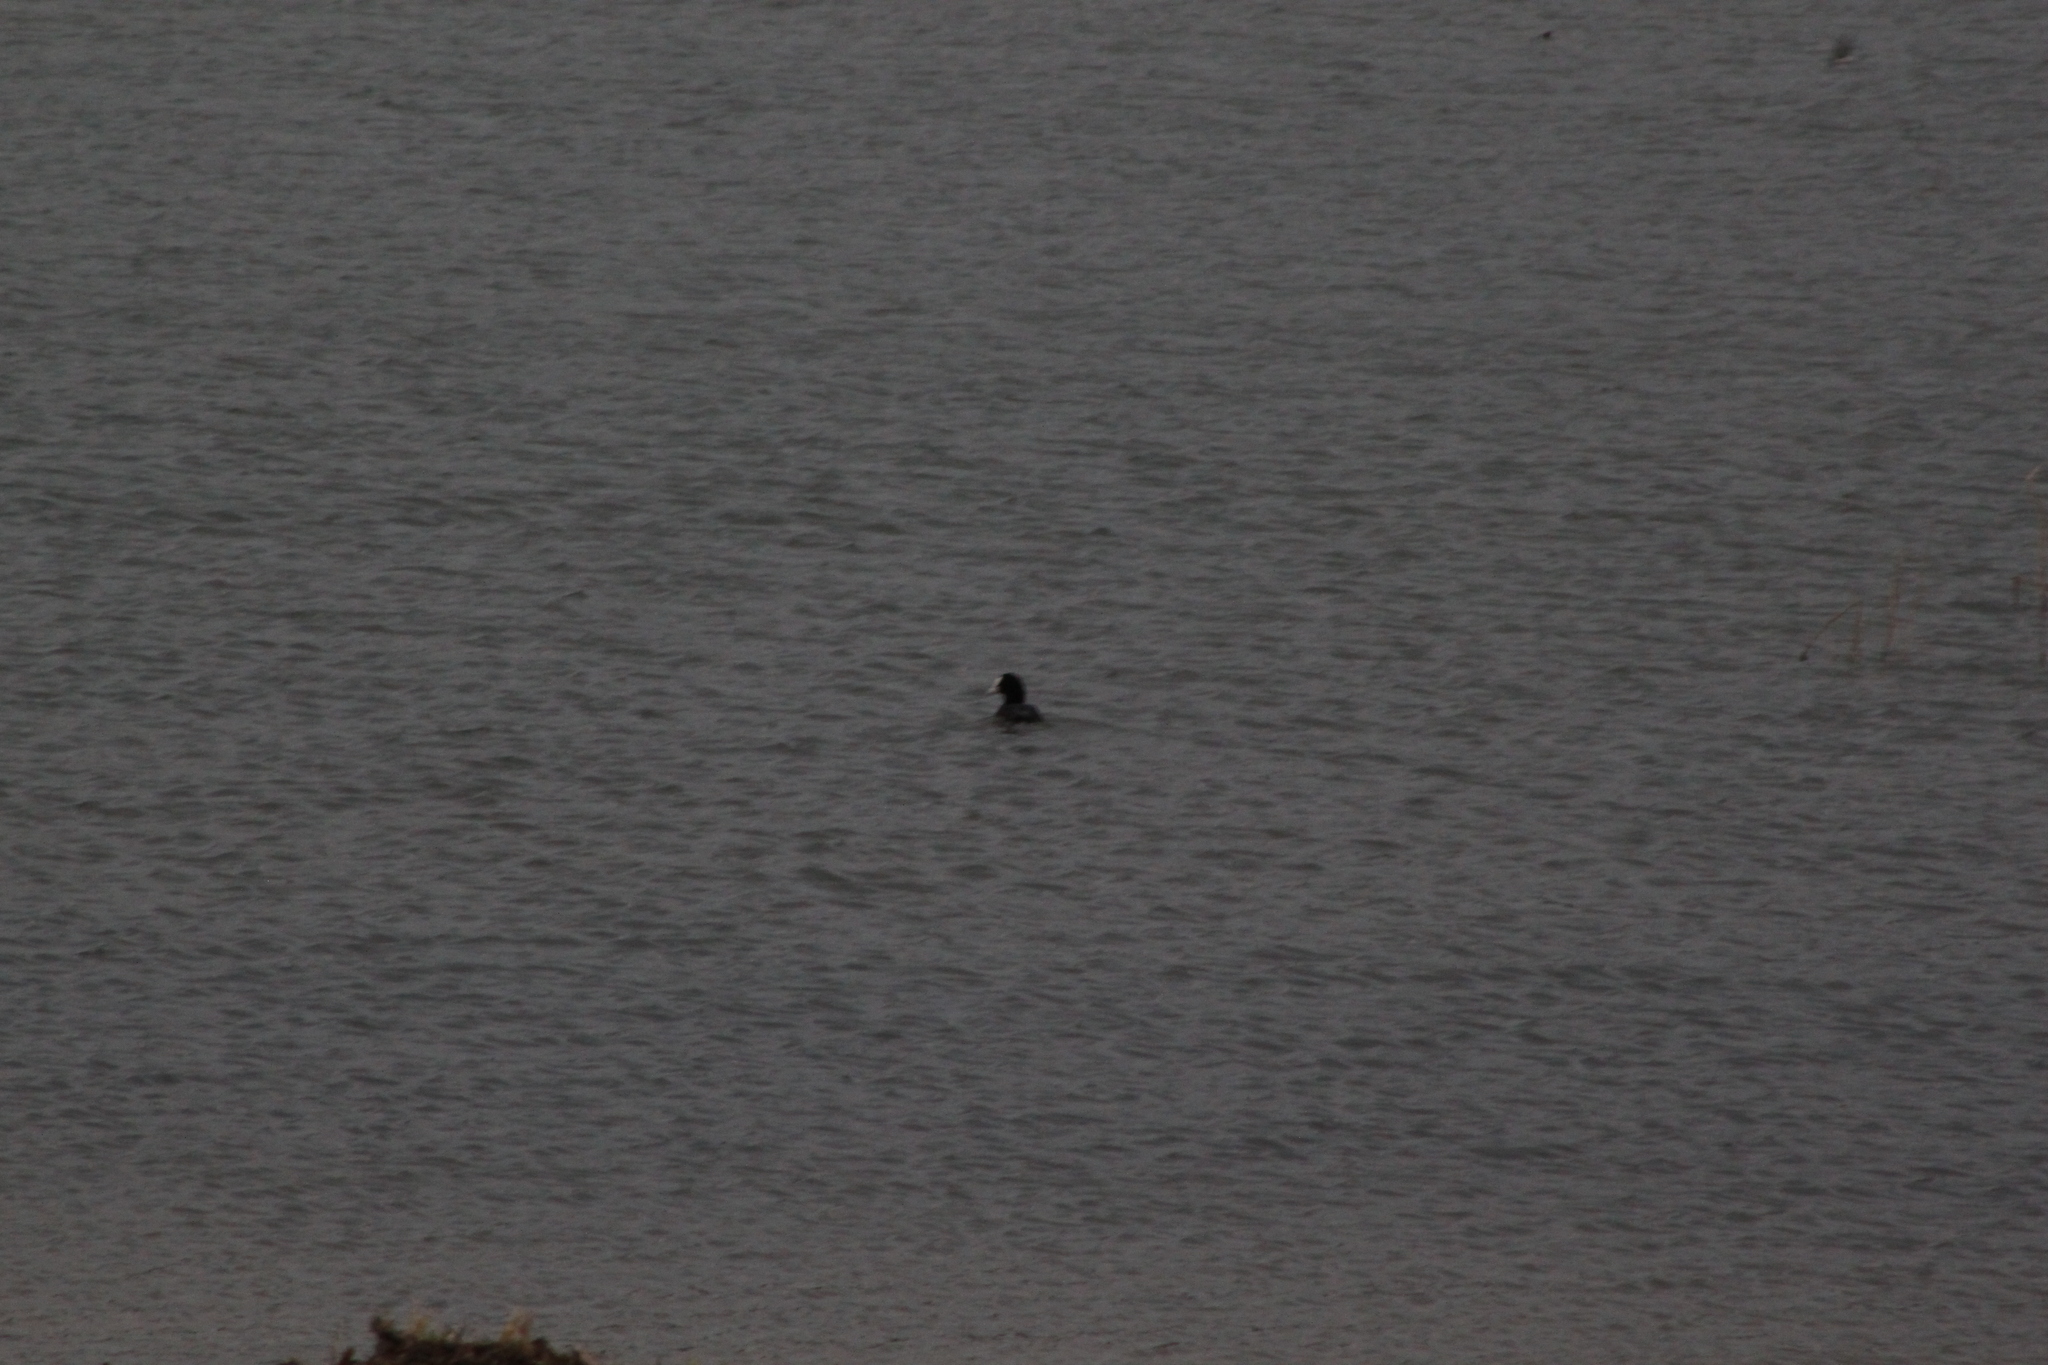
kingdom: Animalia
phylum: Chordata
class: Aves
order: Gruiformes
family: Rallidae
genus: Fulica
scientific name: Fulica atra
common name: Eurasian coot
